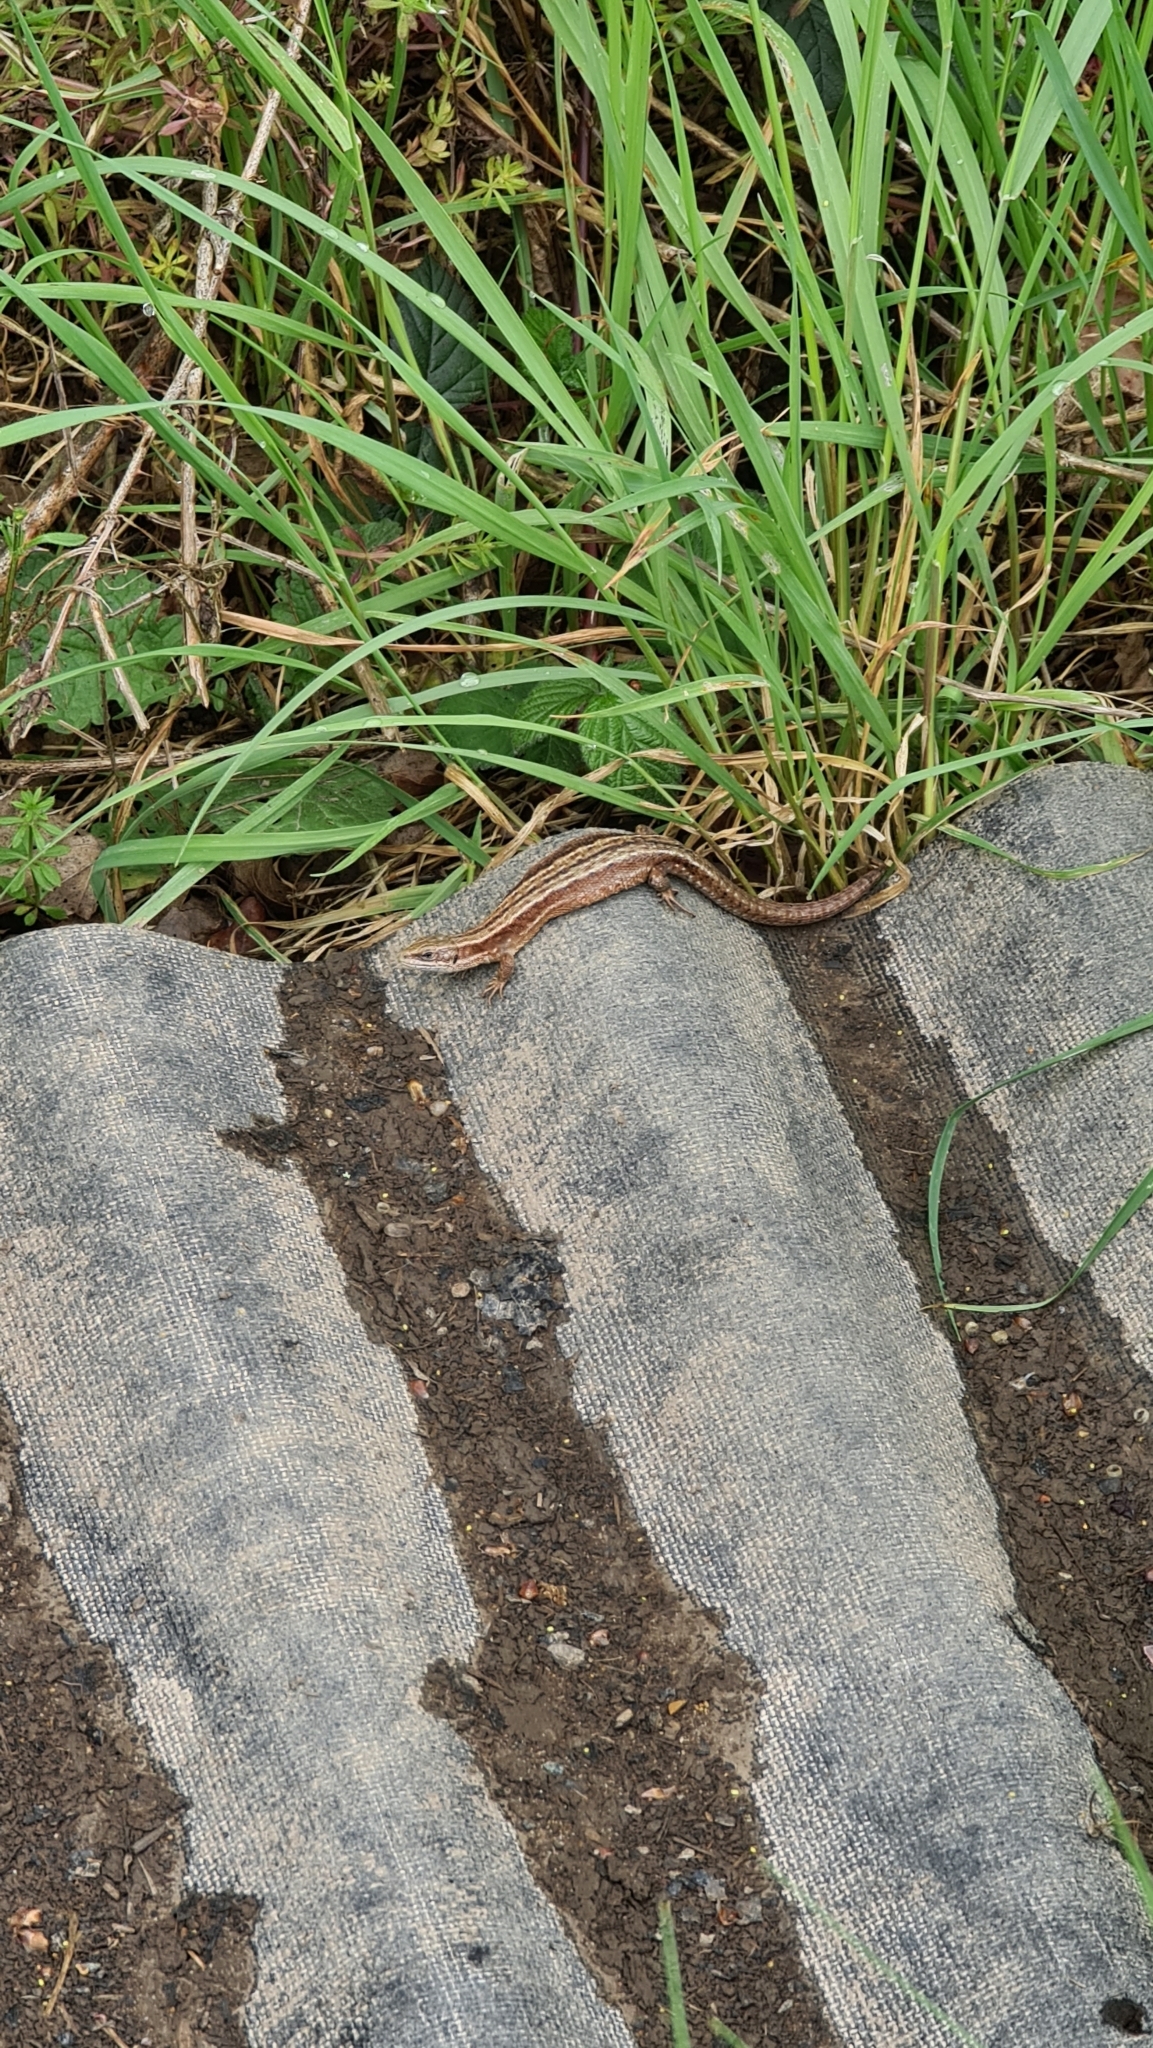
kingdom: Animalia
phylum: Chordata
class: Squamata
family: Lacertidae
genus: Zootoca
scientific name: Zootoca vivipara
